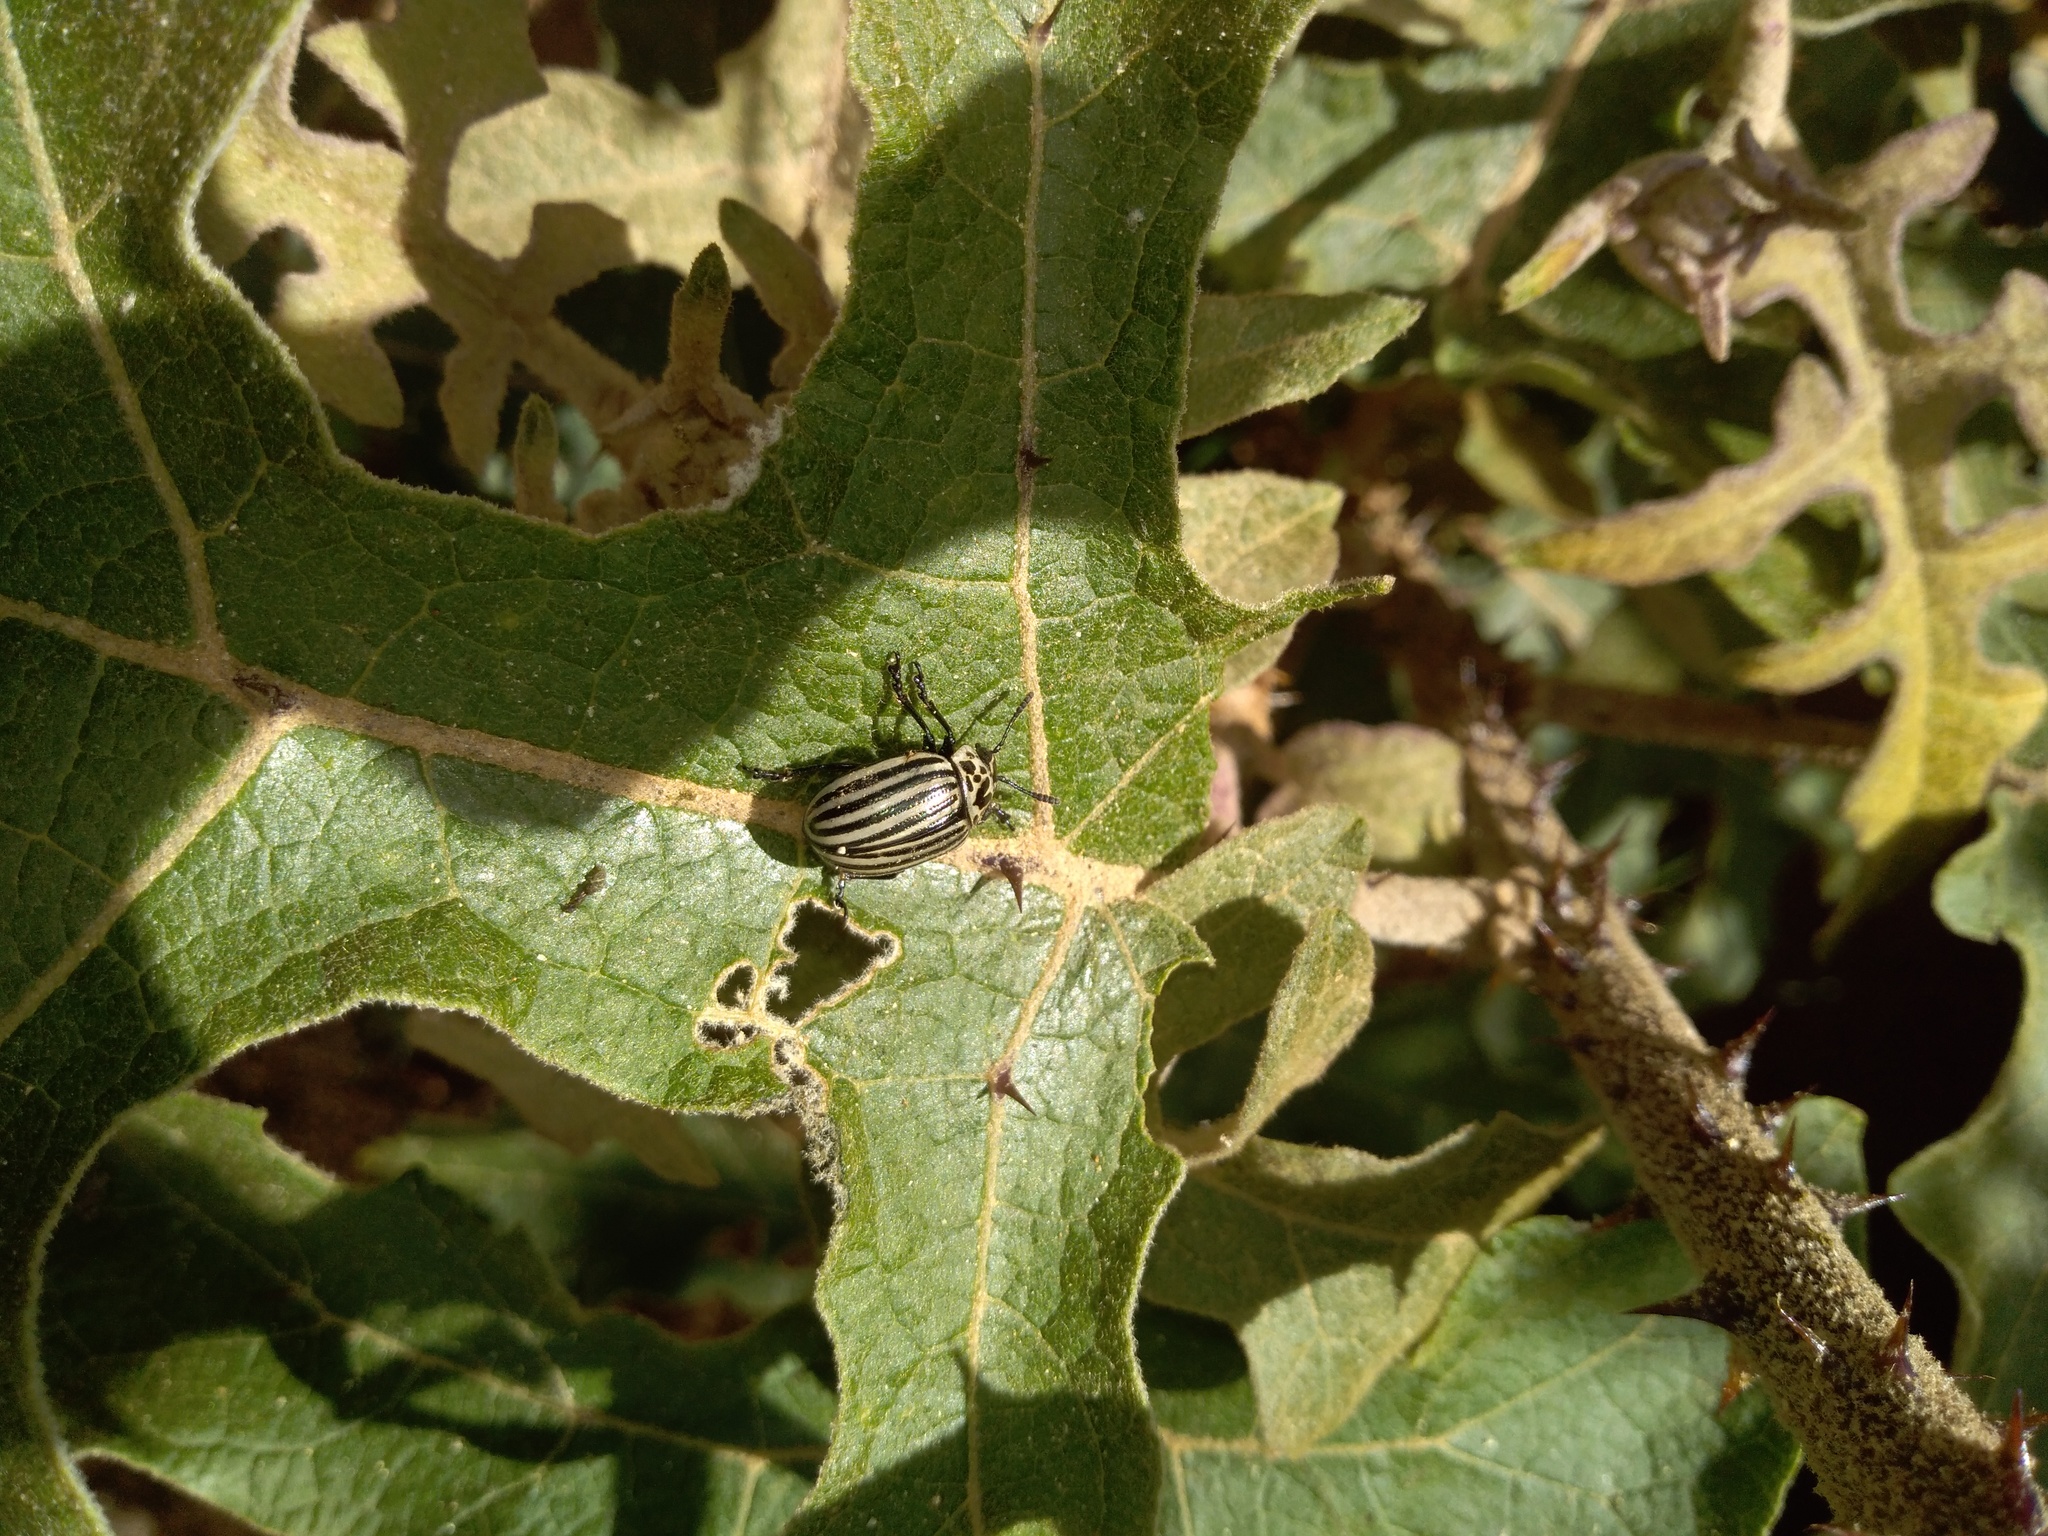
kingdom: Animalia
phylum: Arthropoda
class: Insecta
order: Coleoptera
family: Chrysomelidae
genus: Leptinotarsa
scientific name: Leptinotarsa
